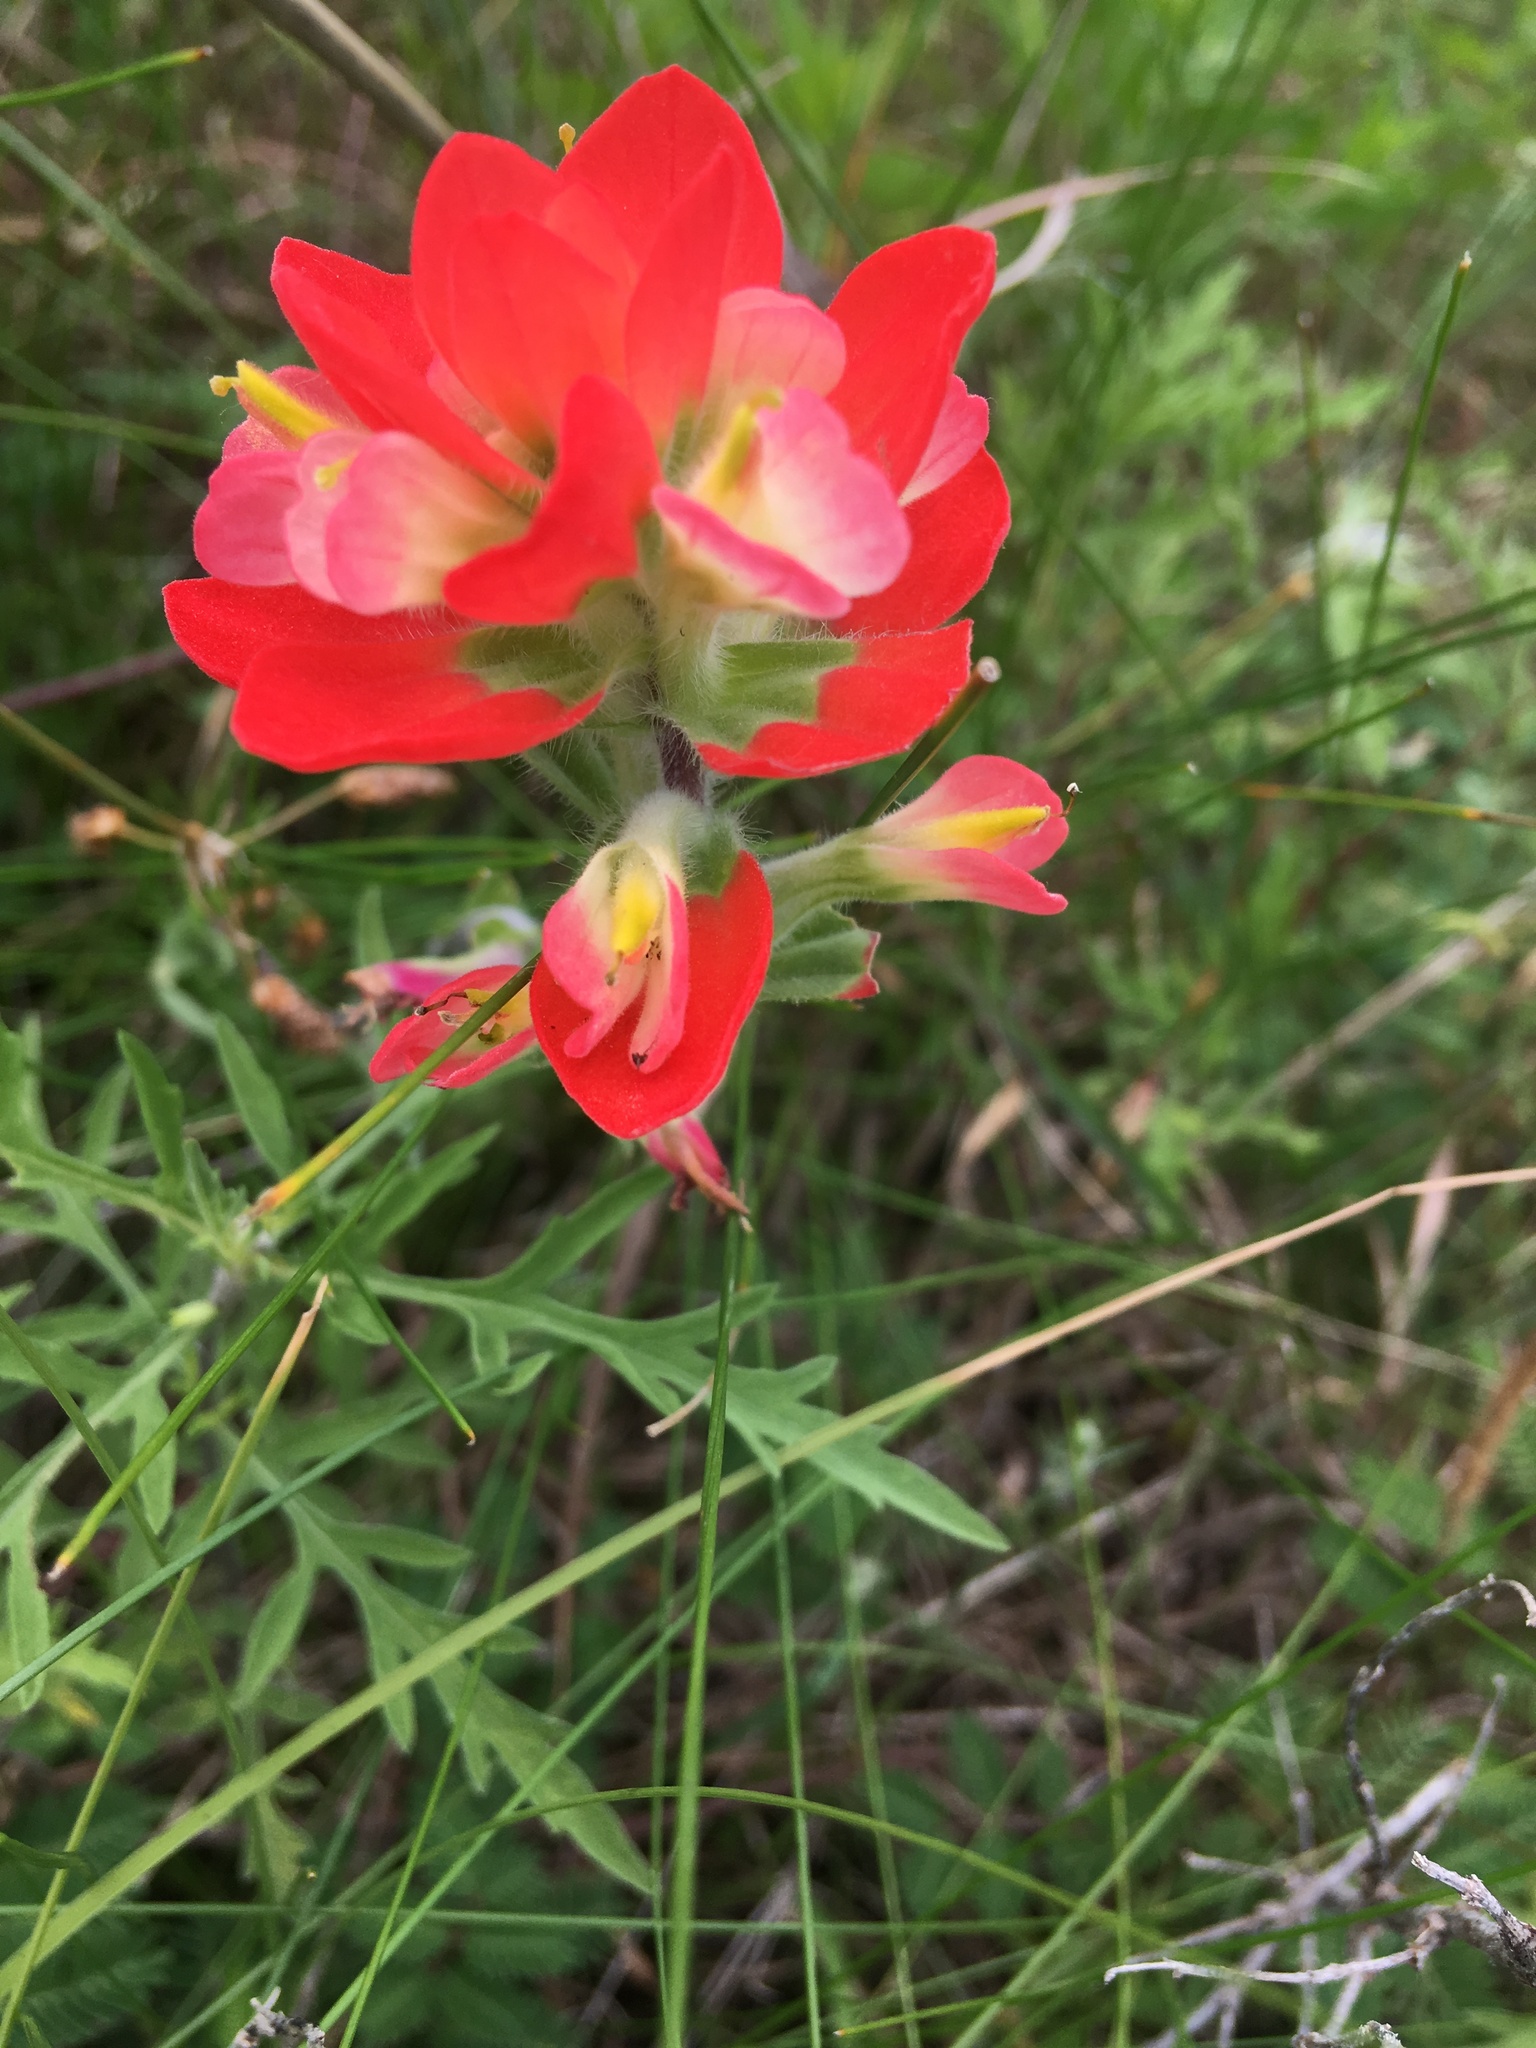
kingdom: Plantae
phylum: Tracheophyta
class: Magnoliopsida
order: Lamiales
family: Orobanchaceae
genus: Castilleja
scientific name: Castilleja indivisa
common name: Texas paintbrush
